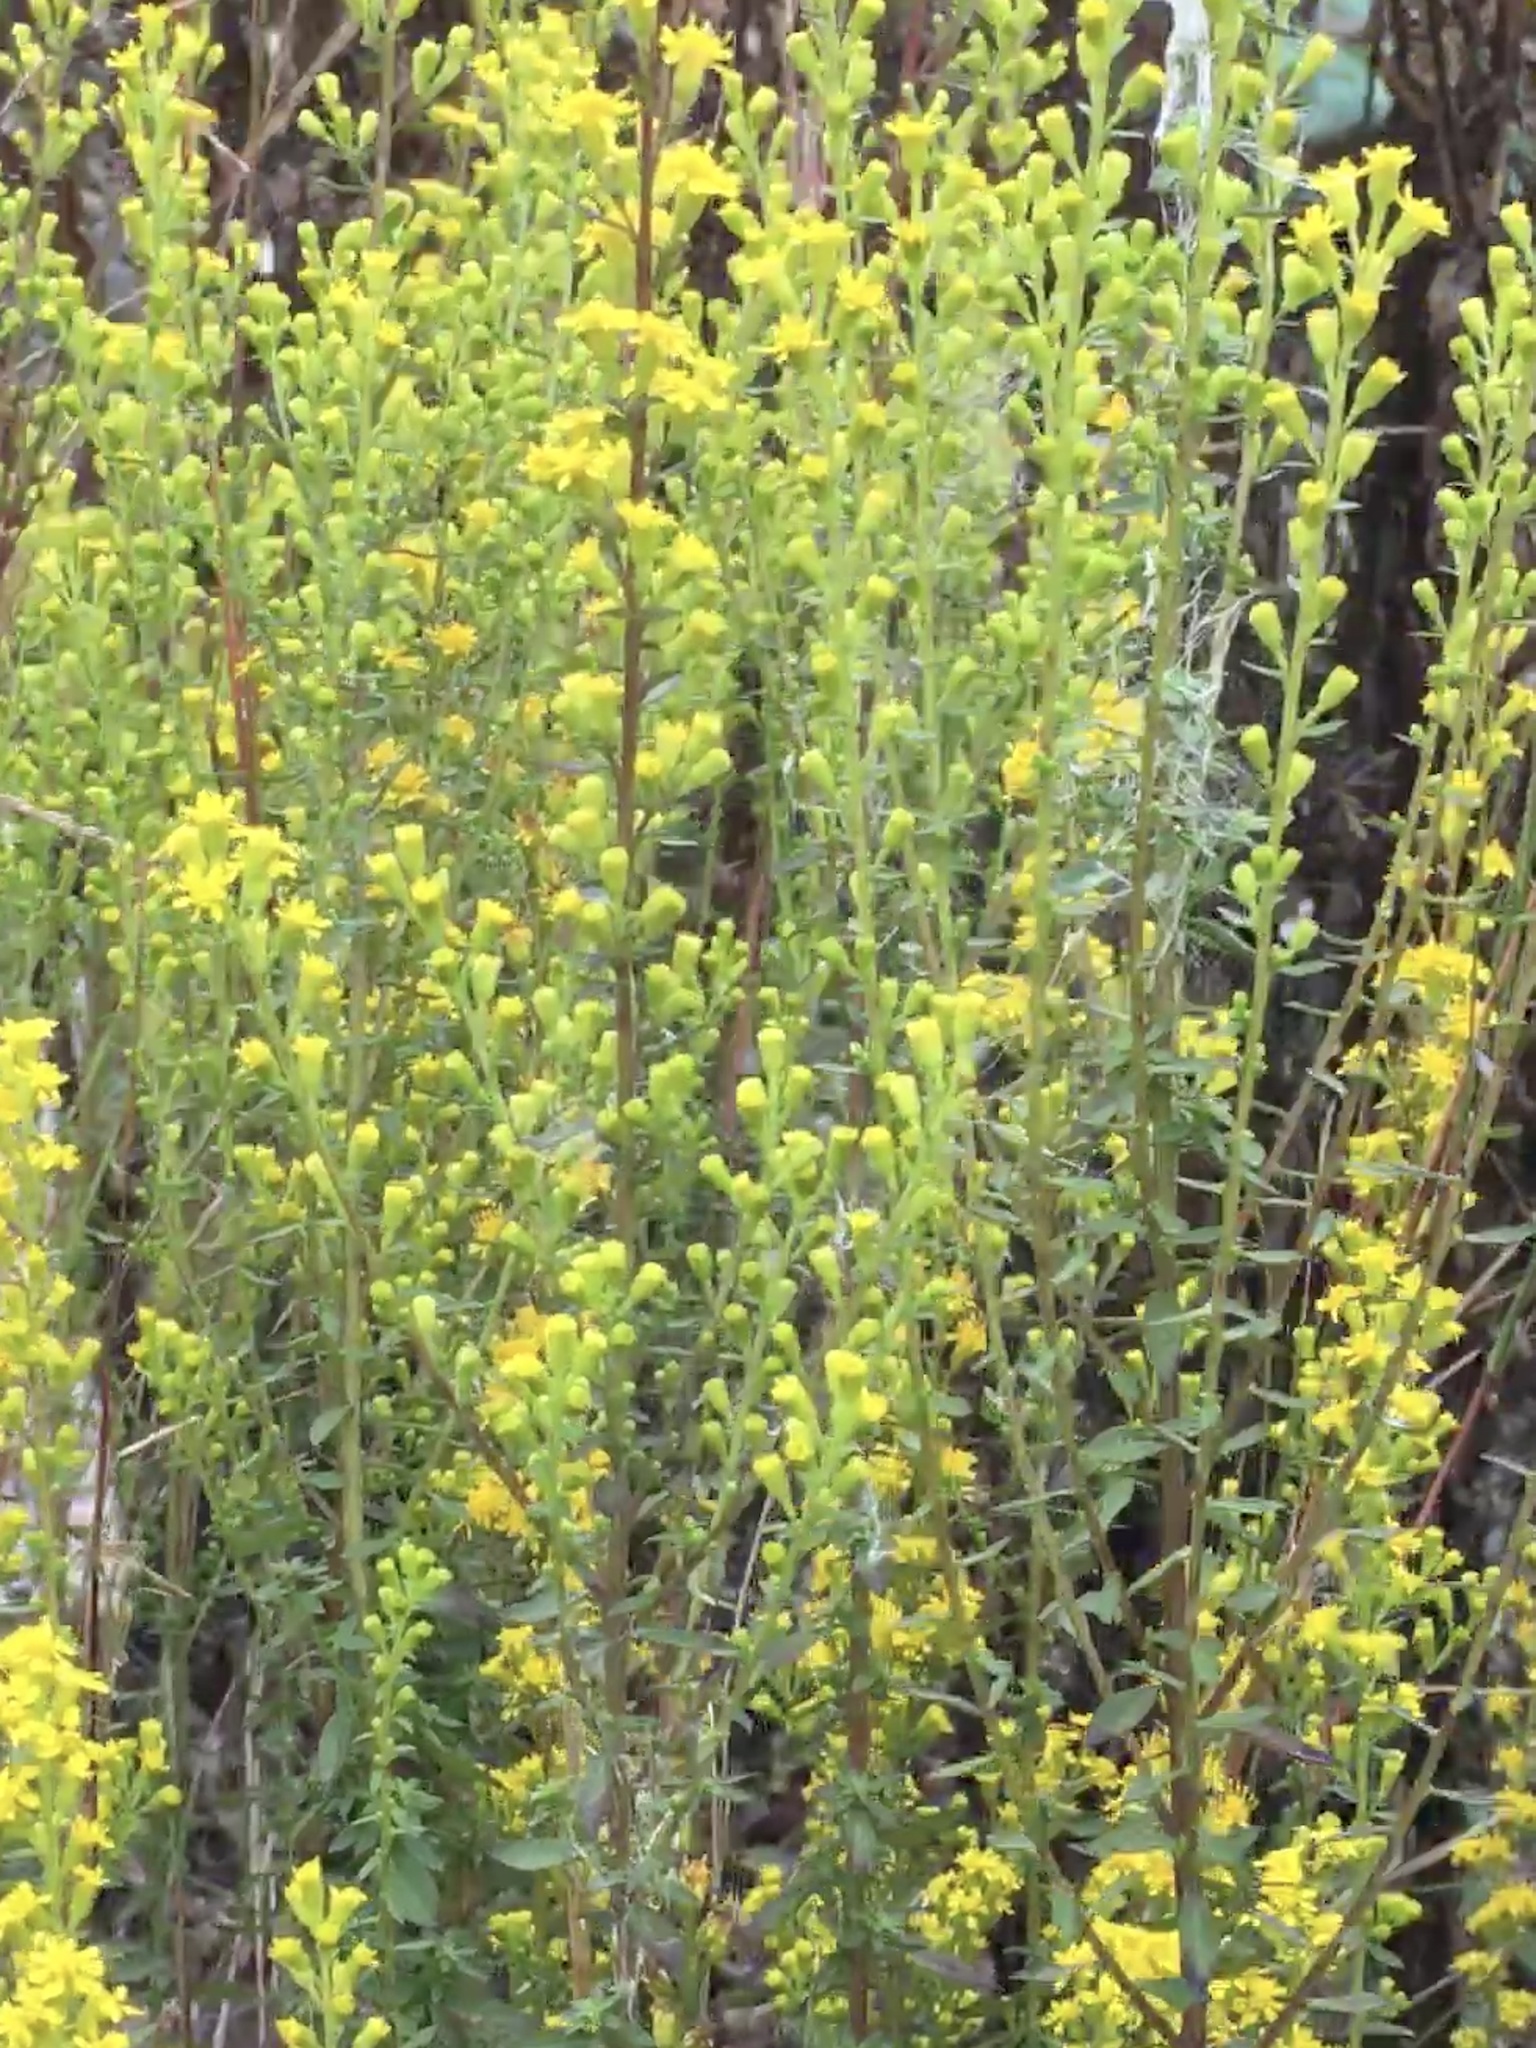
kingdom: Plantae
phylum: Tracheophyta
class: Magnoliopsida
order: Asterales
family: Asteraceae
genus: Solidago
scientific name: Solidago erecta
